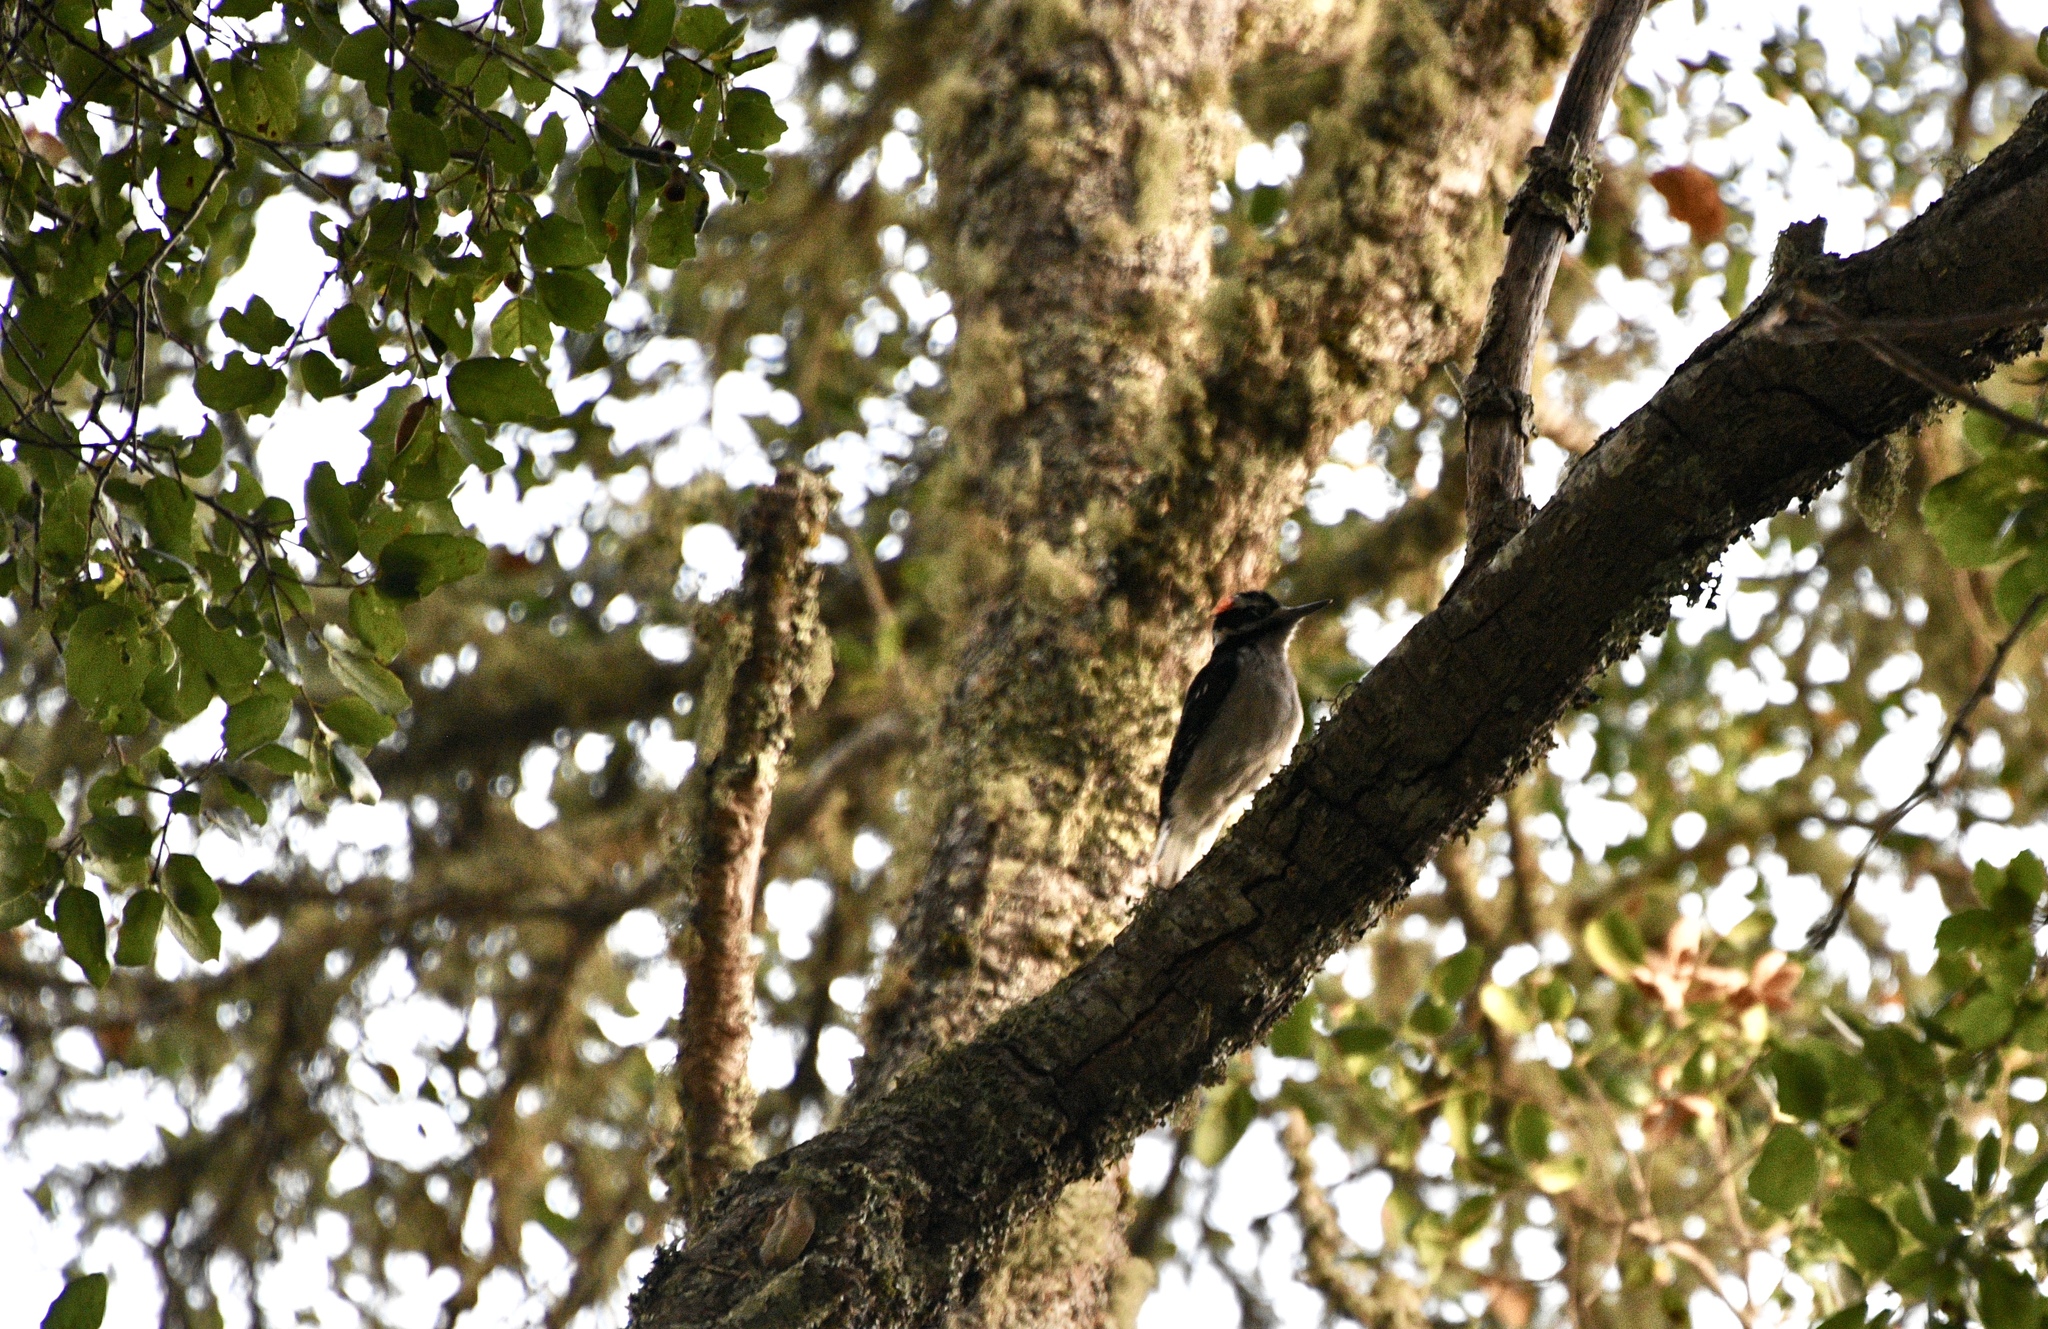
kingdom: Animalia
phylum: Chordata
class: Aves
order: Piciformes
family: Picidae
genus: Leuconotopicus
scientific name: Leuconotopicus villosus
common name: Hairy woodpecker
